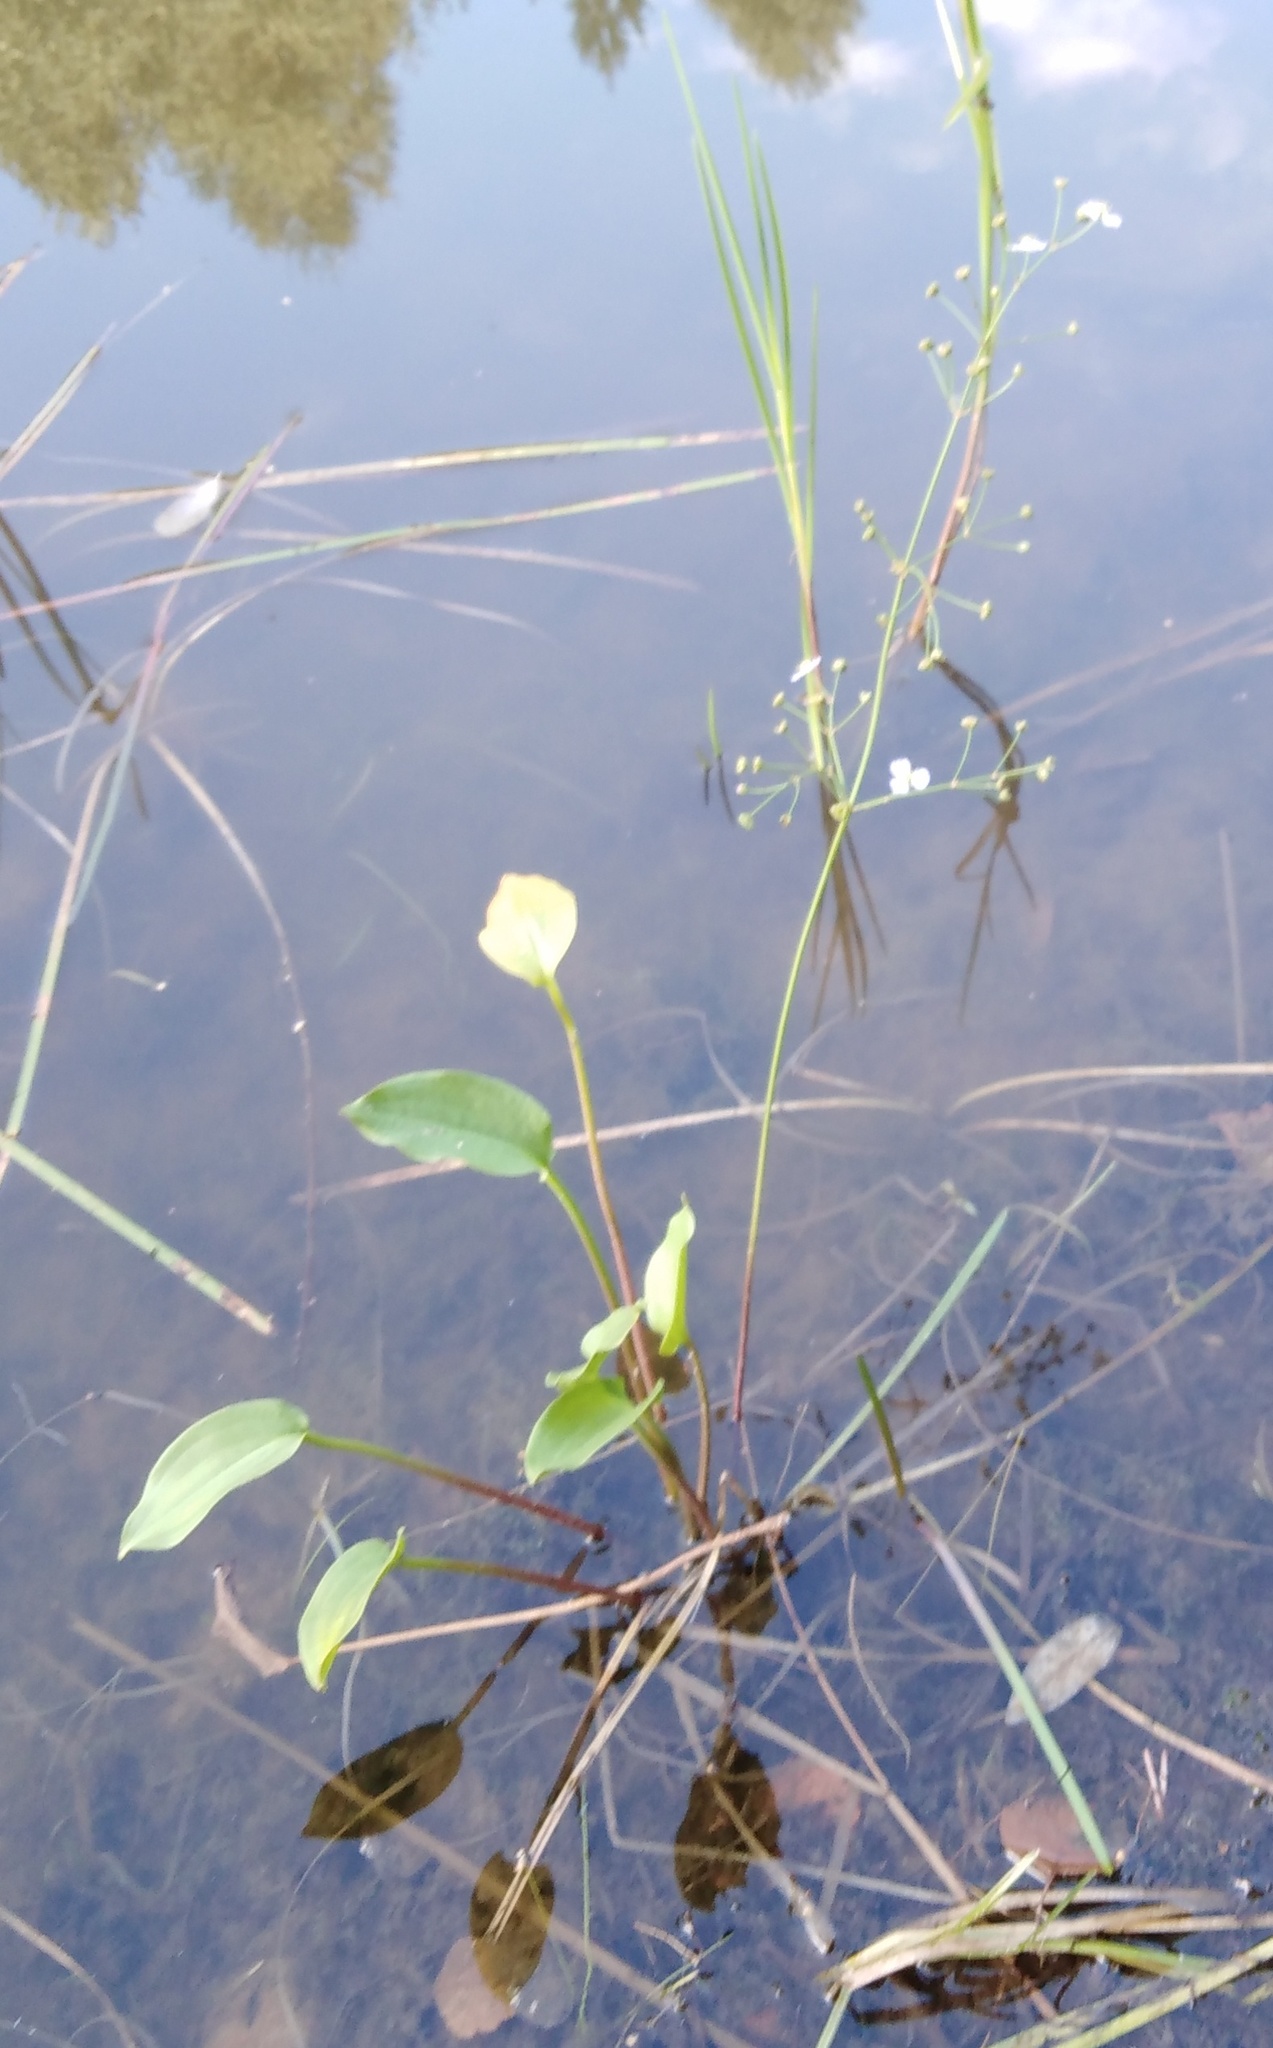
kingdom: Plantae
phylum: Tracheophyta
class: Liliopsida
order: Alismatales
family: Alismataceae
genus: Alisma
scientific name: Alisma plantago-aquatica
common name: Water-plantain
